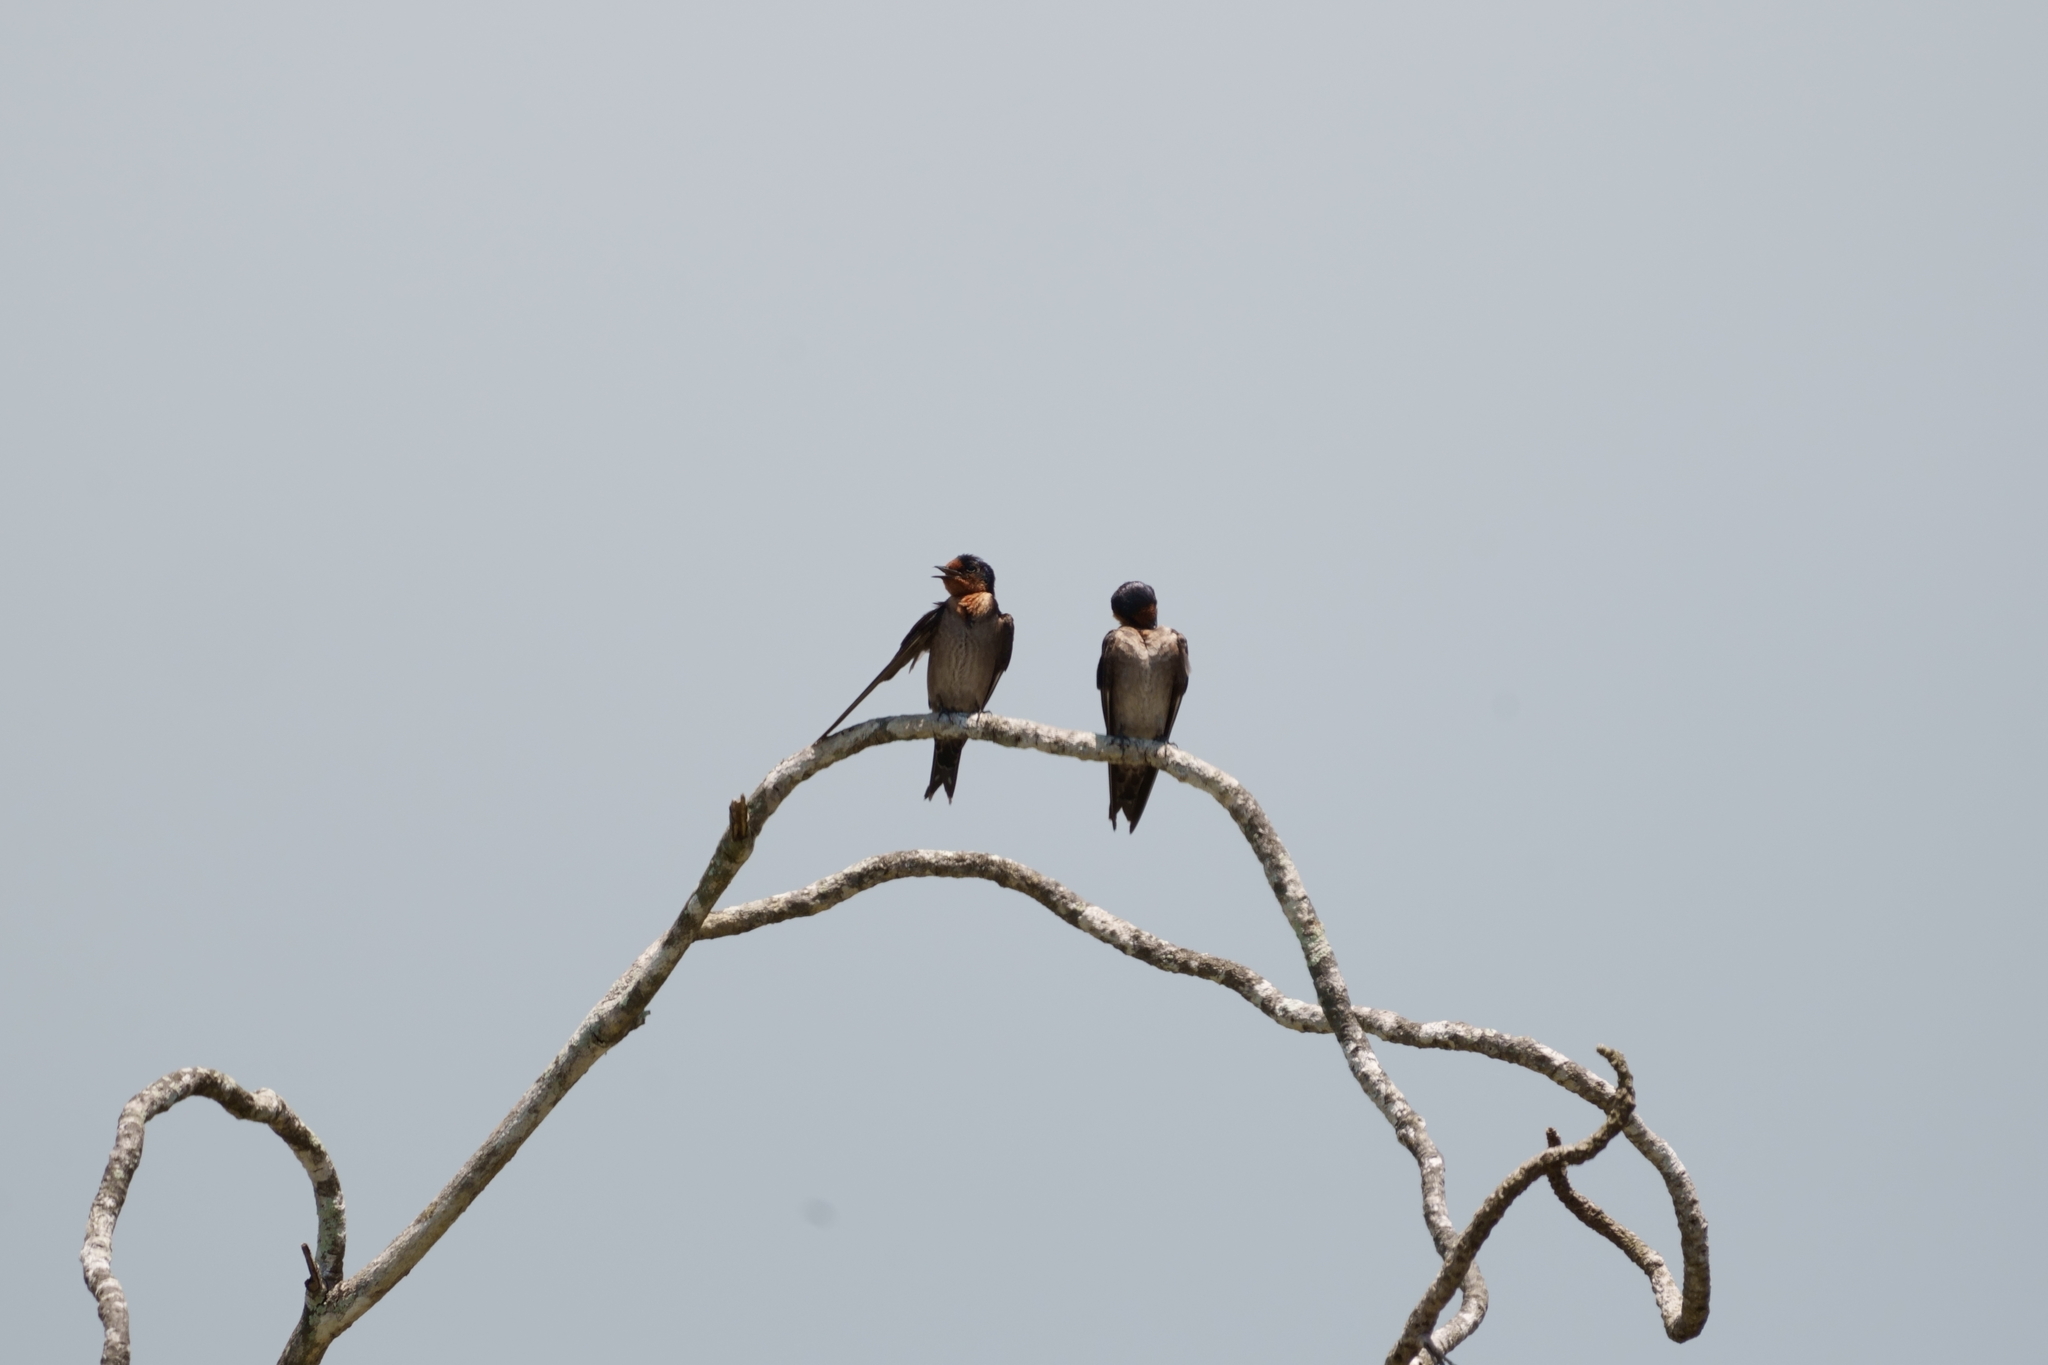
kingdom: Animalia
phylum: Chordata
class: Aves
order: Passeriformes
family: Hirundinidae
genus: Hirundo
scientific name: Hirundo tahitica
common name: Pacific swallow
